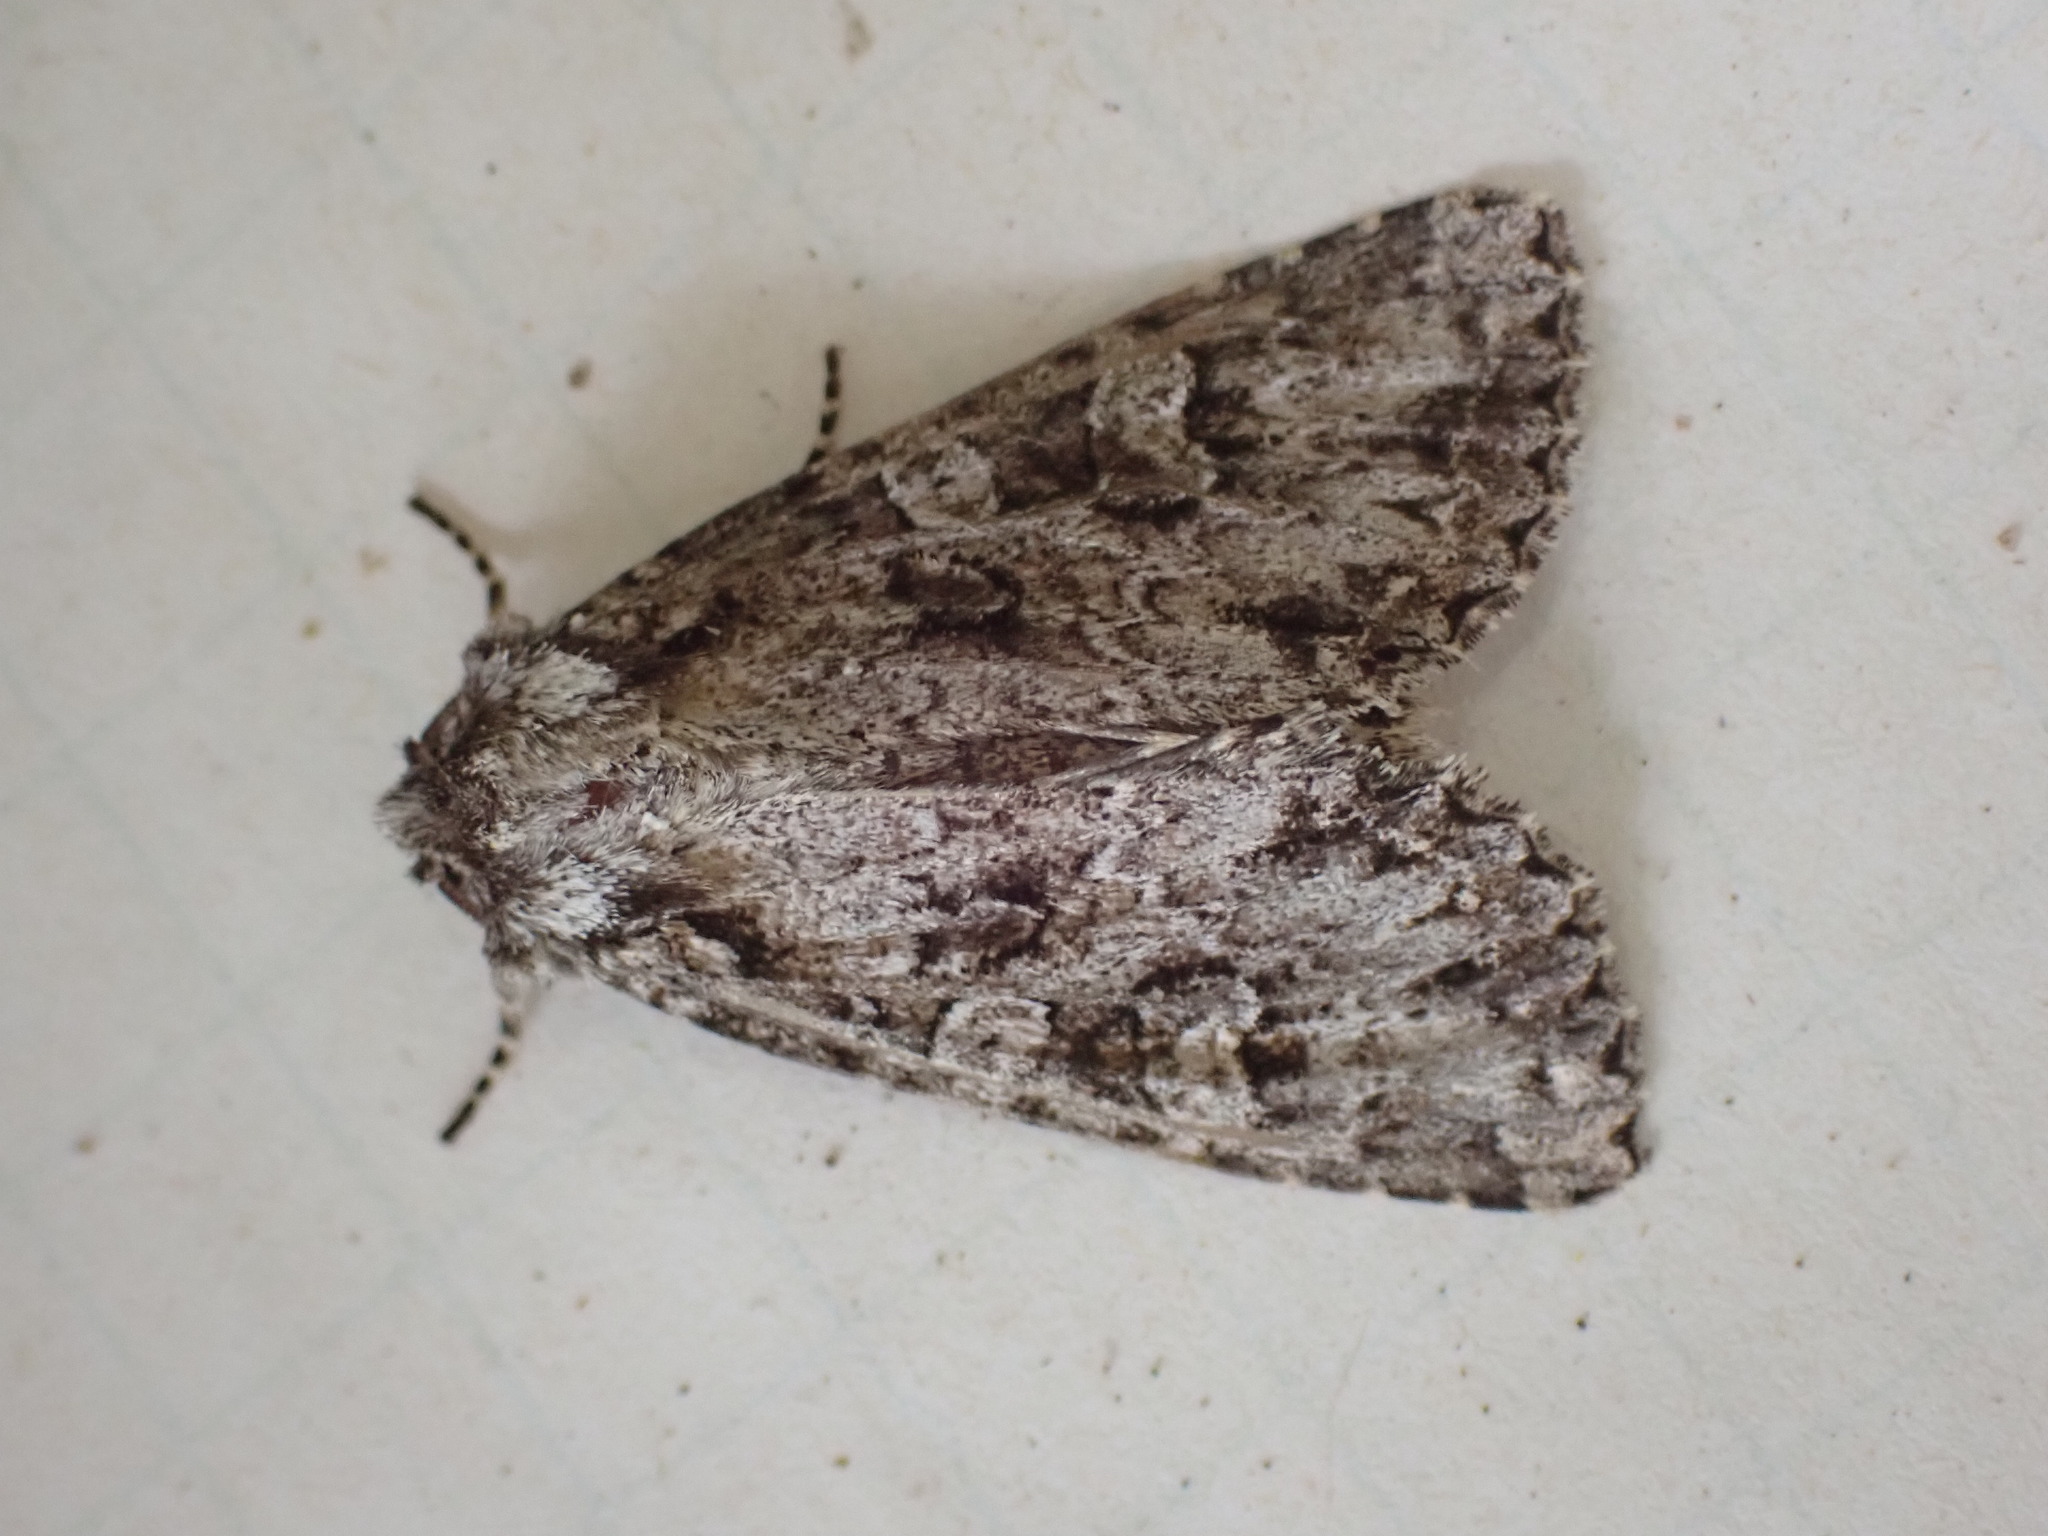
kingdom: Animalia
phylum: Arthropoda
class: Insecta
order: Lepidoptera
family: Noctuidae
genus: Polia
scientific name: Polia imbrifera
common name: Cloudy arches moth
